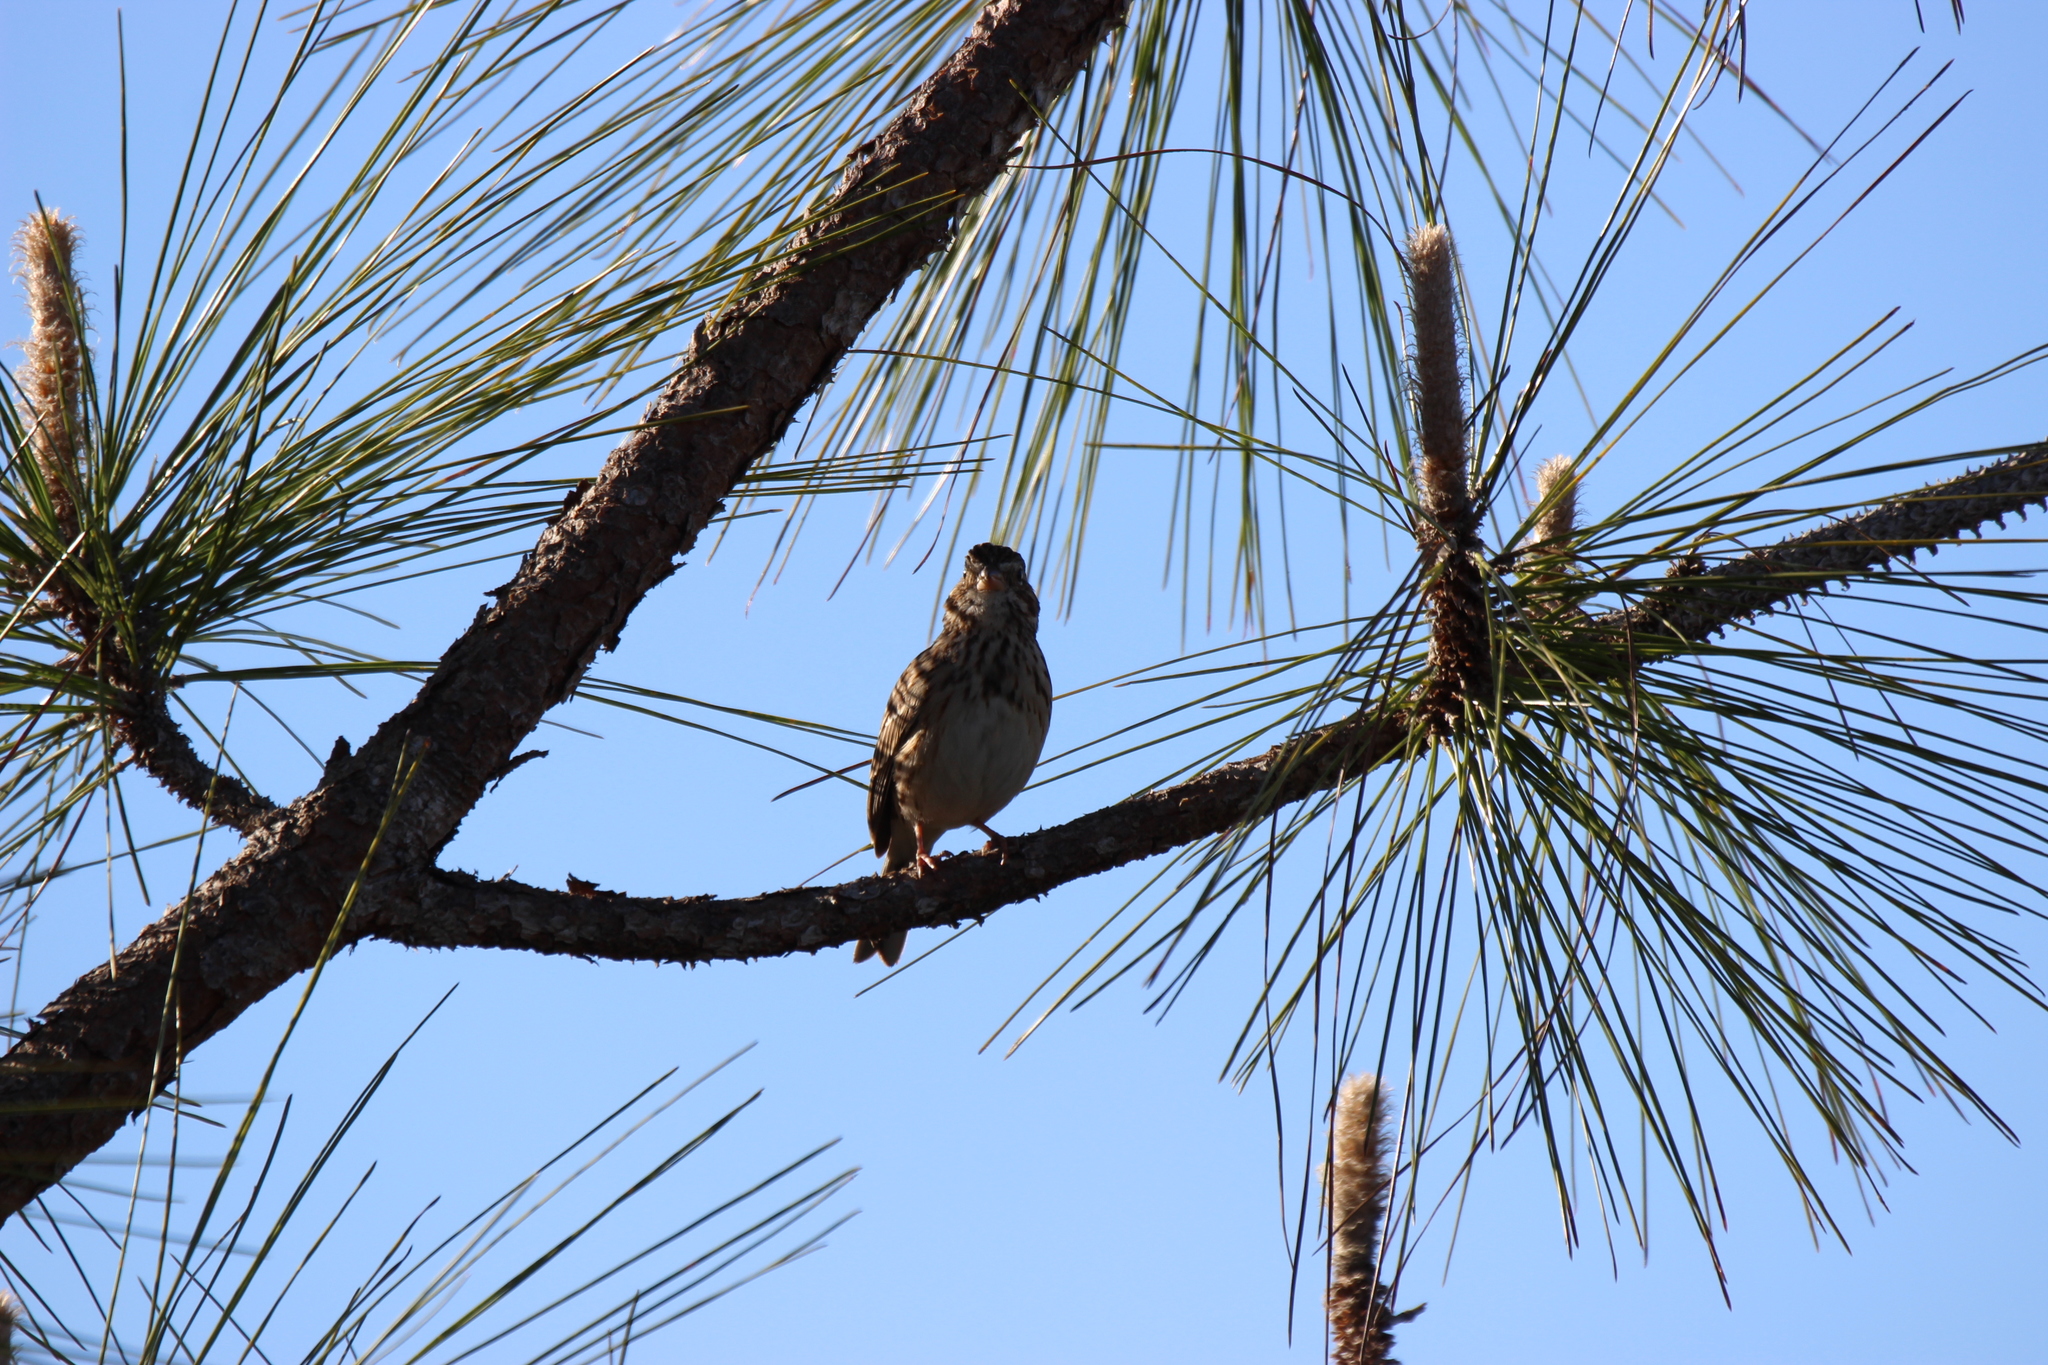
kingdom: Animalia
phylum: Chordata
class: Aves
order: Passeriformes
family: Passerellidae
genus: Pooecetes
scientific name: Pooecetes gramineus
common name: Vesper sparrow
